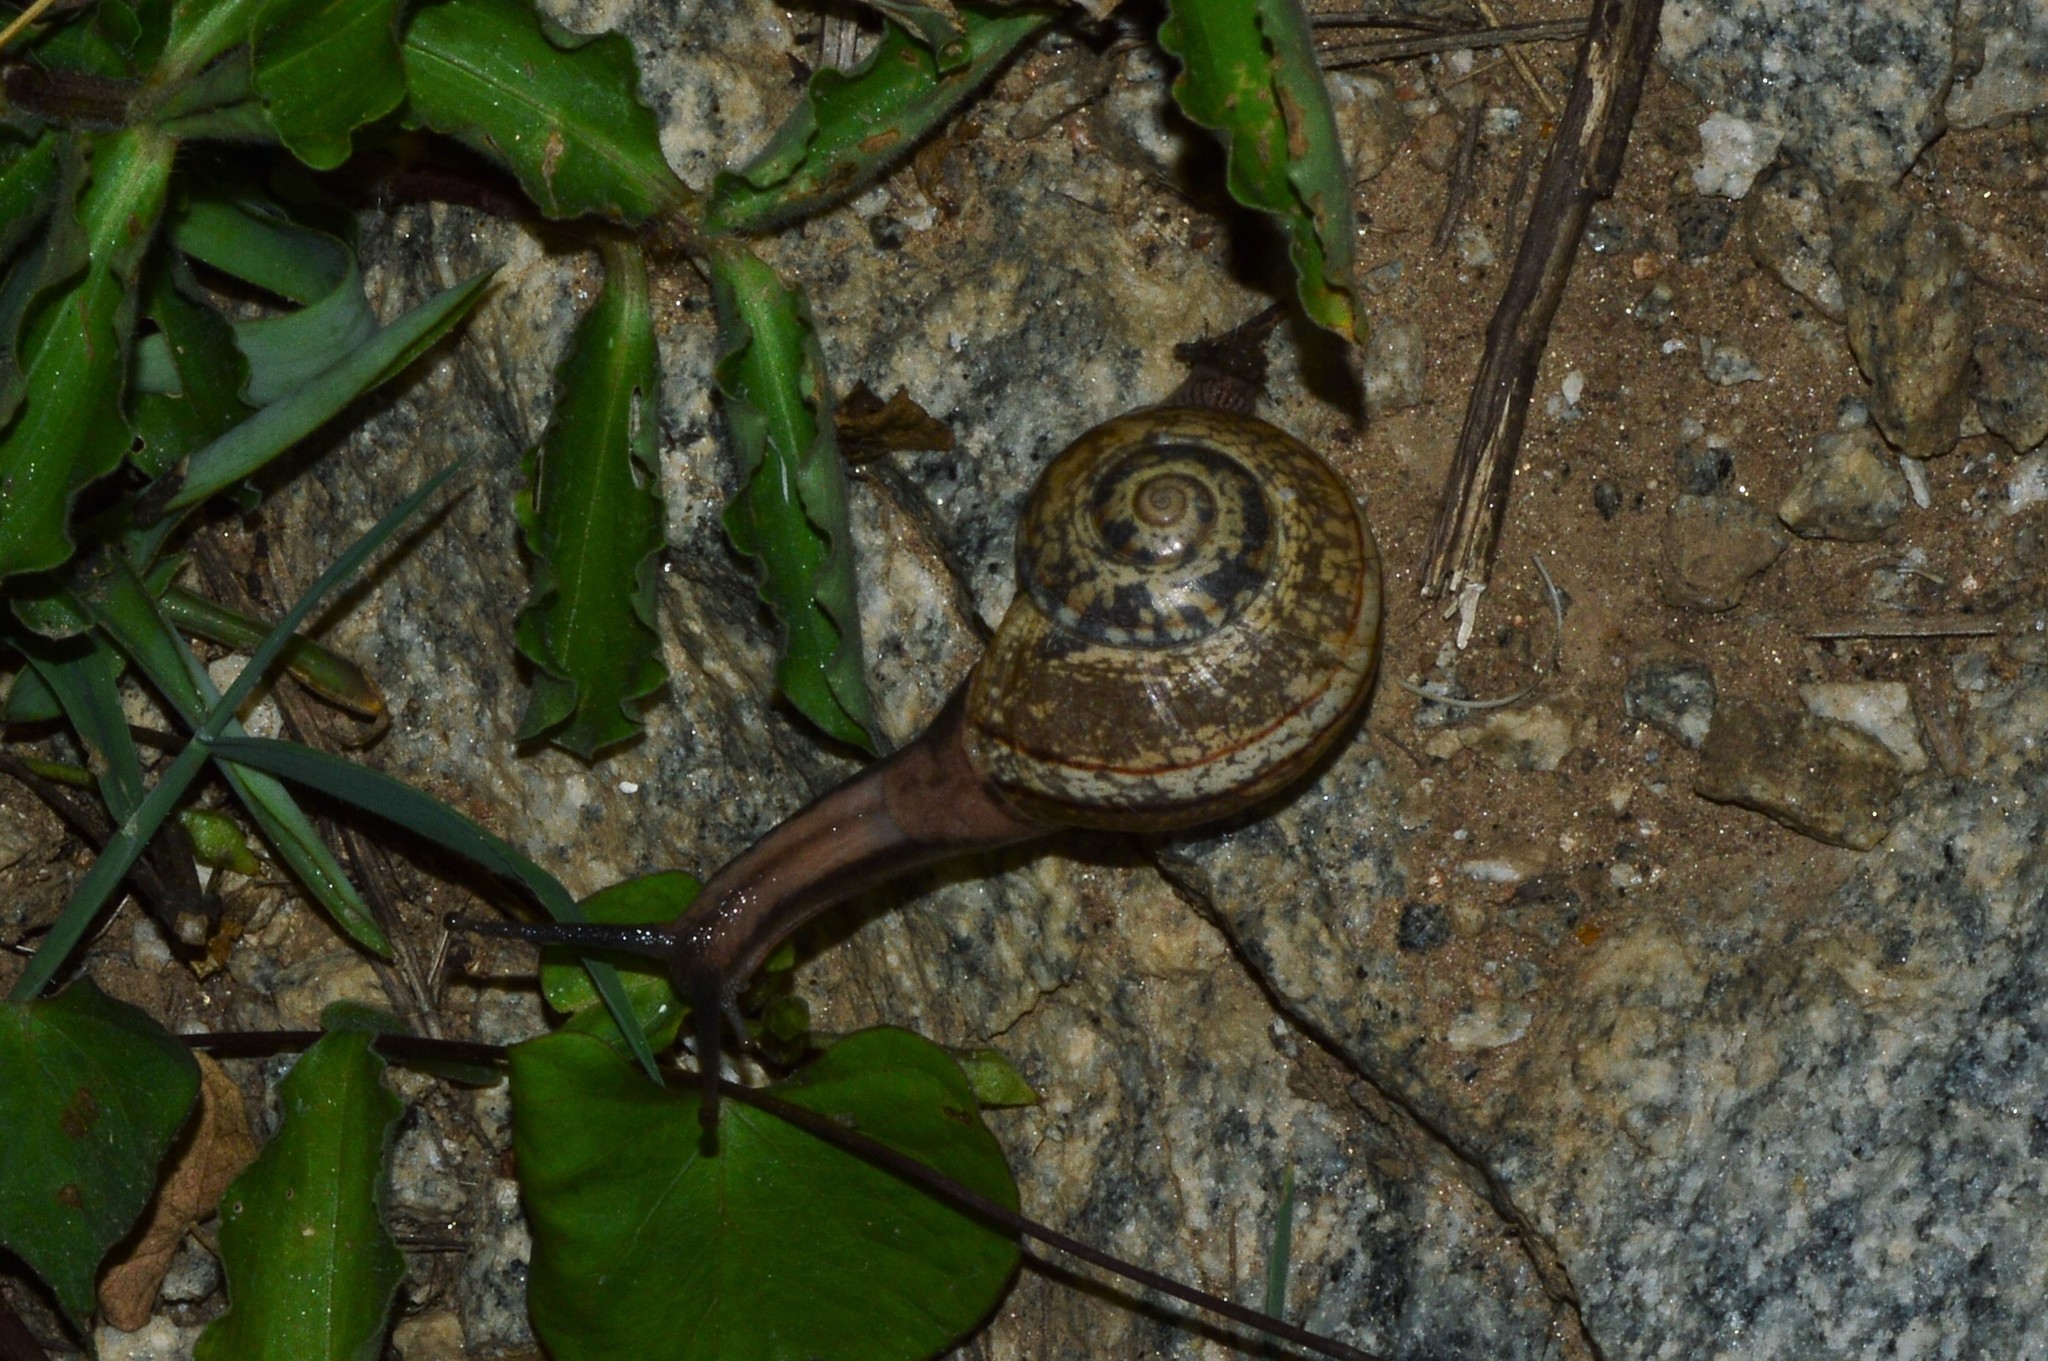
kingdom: Animalia
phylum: Mollusca
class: Gastropoda
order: Stylommatophora
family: Ariophantidae
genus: Ariophanta
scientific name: Ariophanta exilis
